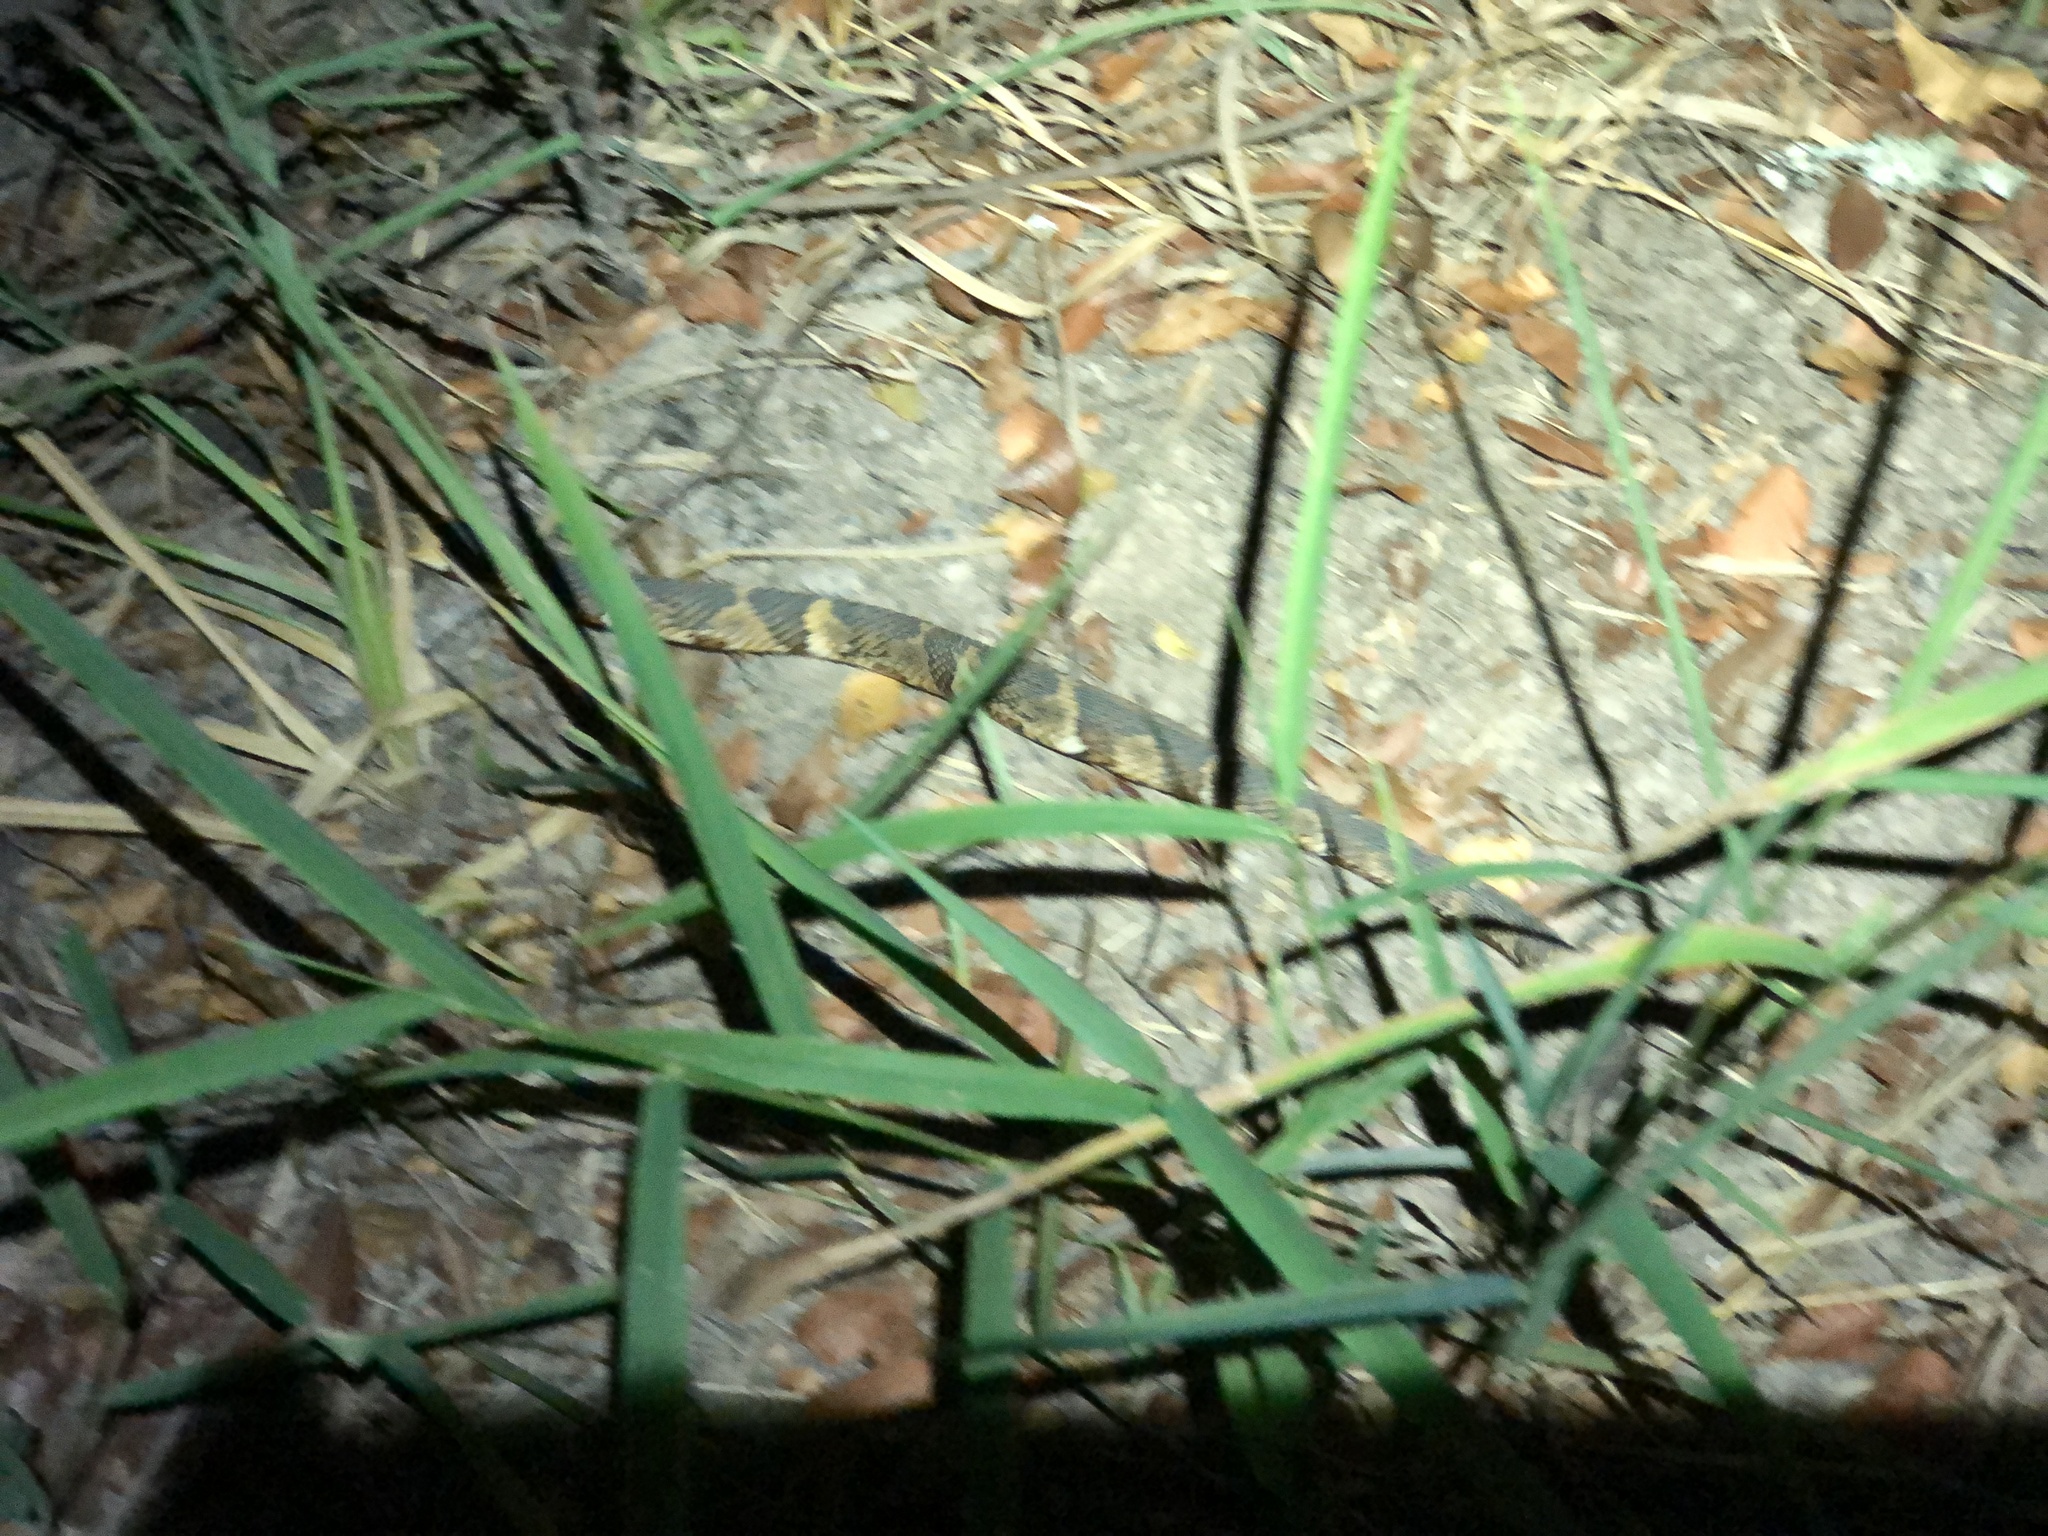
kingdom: Animalia
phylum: Chordata
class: Squamata
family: Colubridae
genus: Nerodia
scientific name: Nerodia fasciata
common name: Southern water snake
